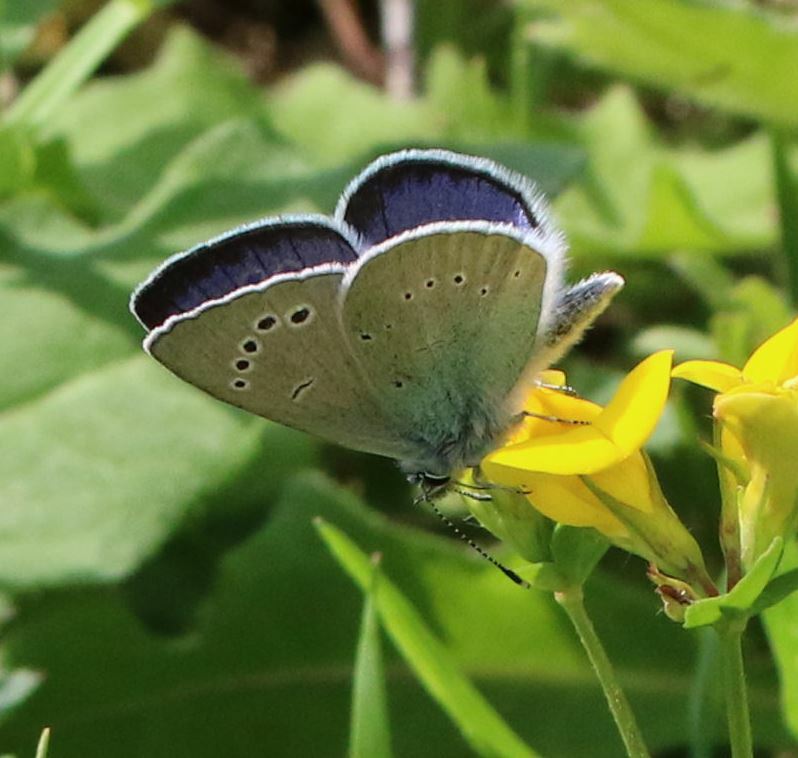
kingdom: Animalia
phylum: Arthropoda
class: Insecta
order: Lepidoptera
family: Lycaenidae
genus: Glaucopsyche
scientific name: Glaucopsyche alexis
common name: Green-underside blue
